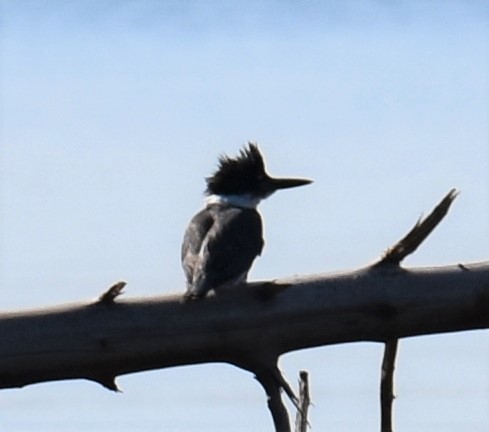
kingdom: Animalia
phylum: Chordata
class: Aves
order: Coraciiformes
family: Alcedinidae
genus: Megaceryle
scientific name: Megaceryle alcyon
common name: Belted kingfisher
